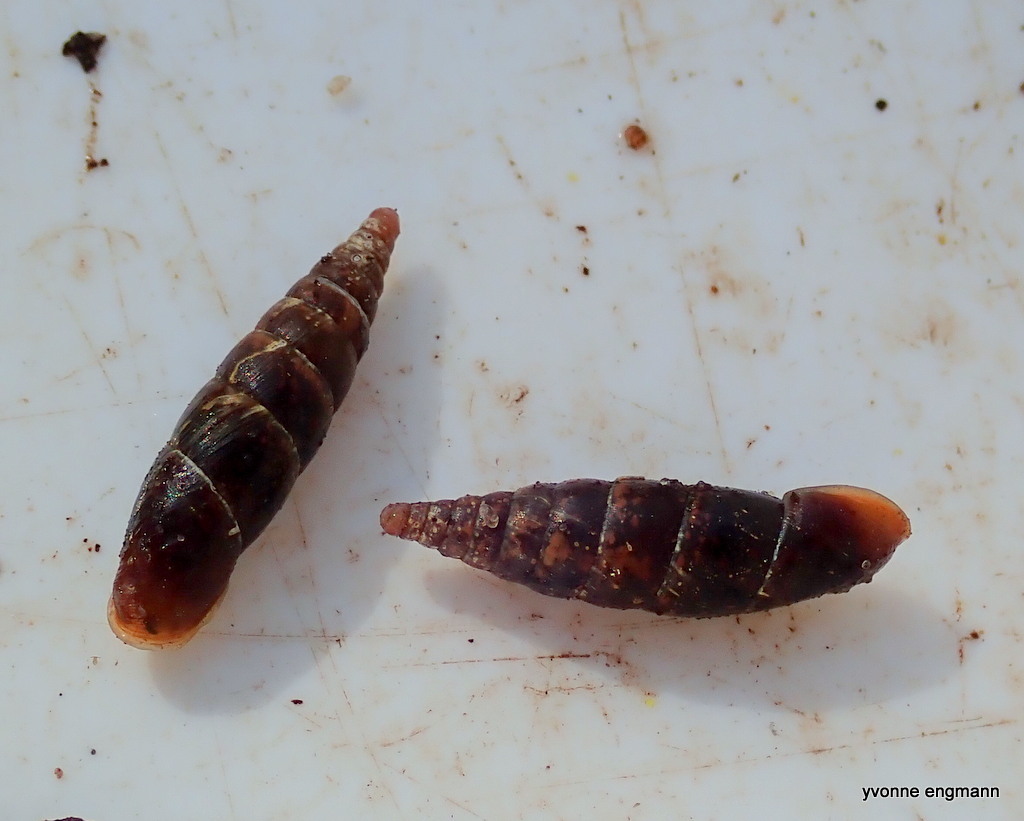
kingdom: Animalia
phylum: Mollusca
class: Gastropoda
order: Stylommatophora
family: Clausiliidae
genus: Cochlodina
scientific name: Cochlodina laminata
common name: Plaited door snail
